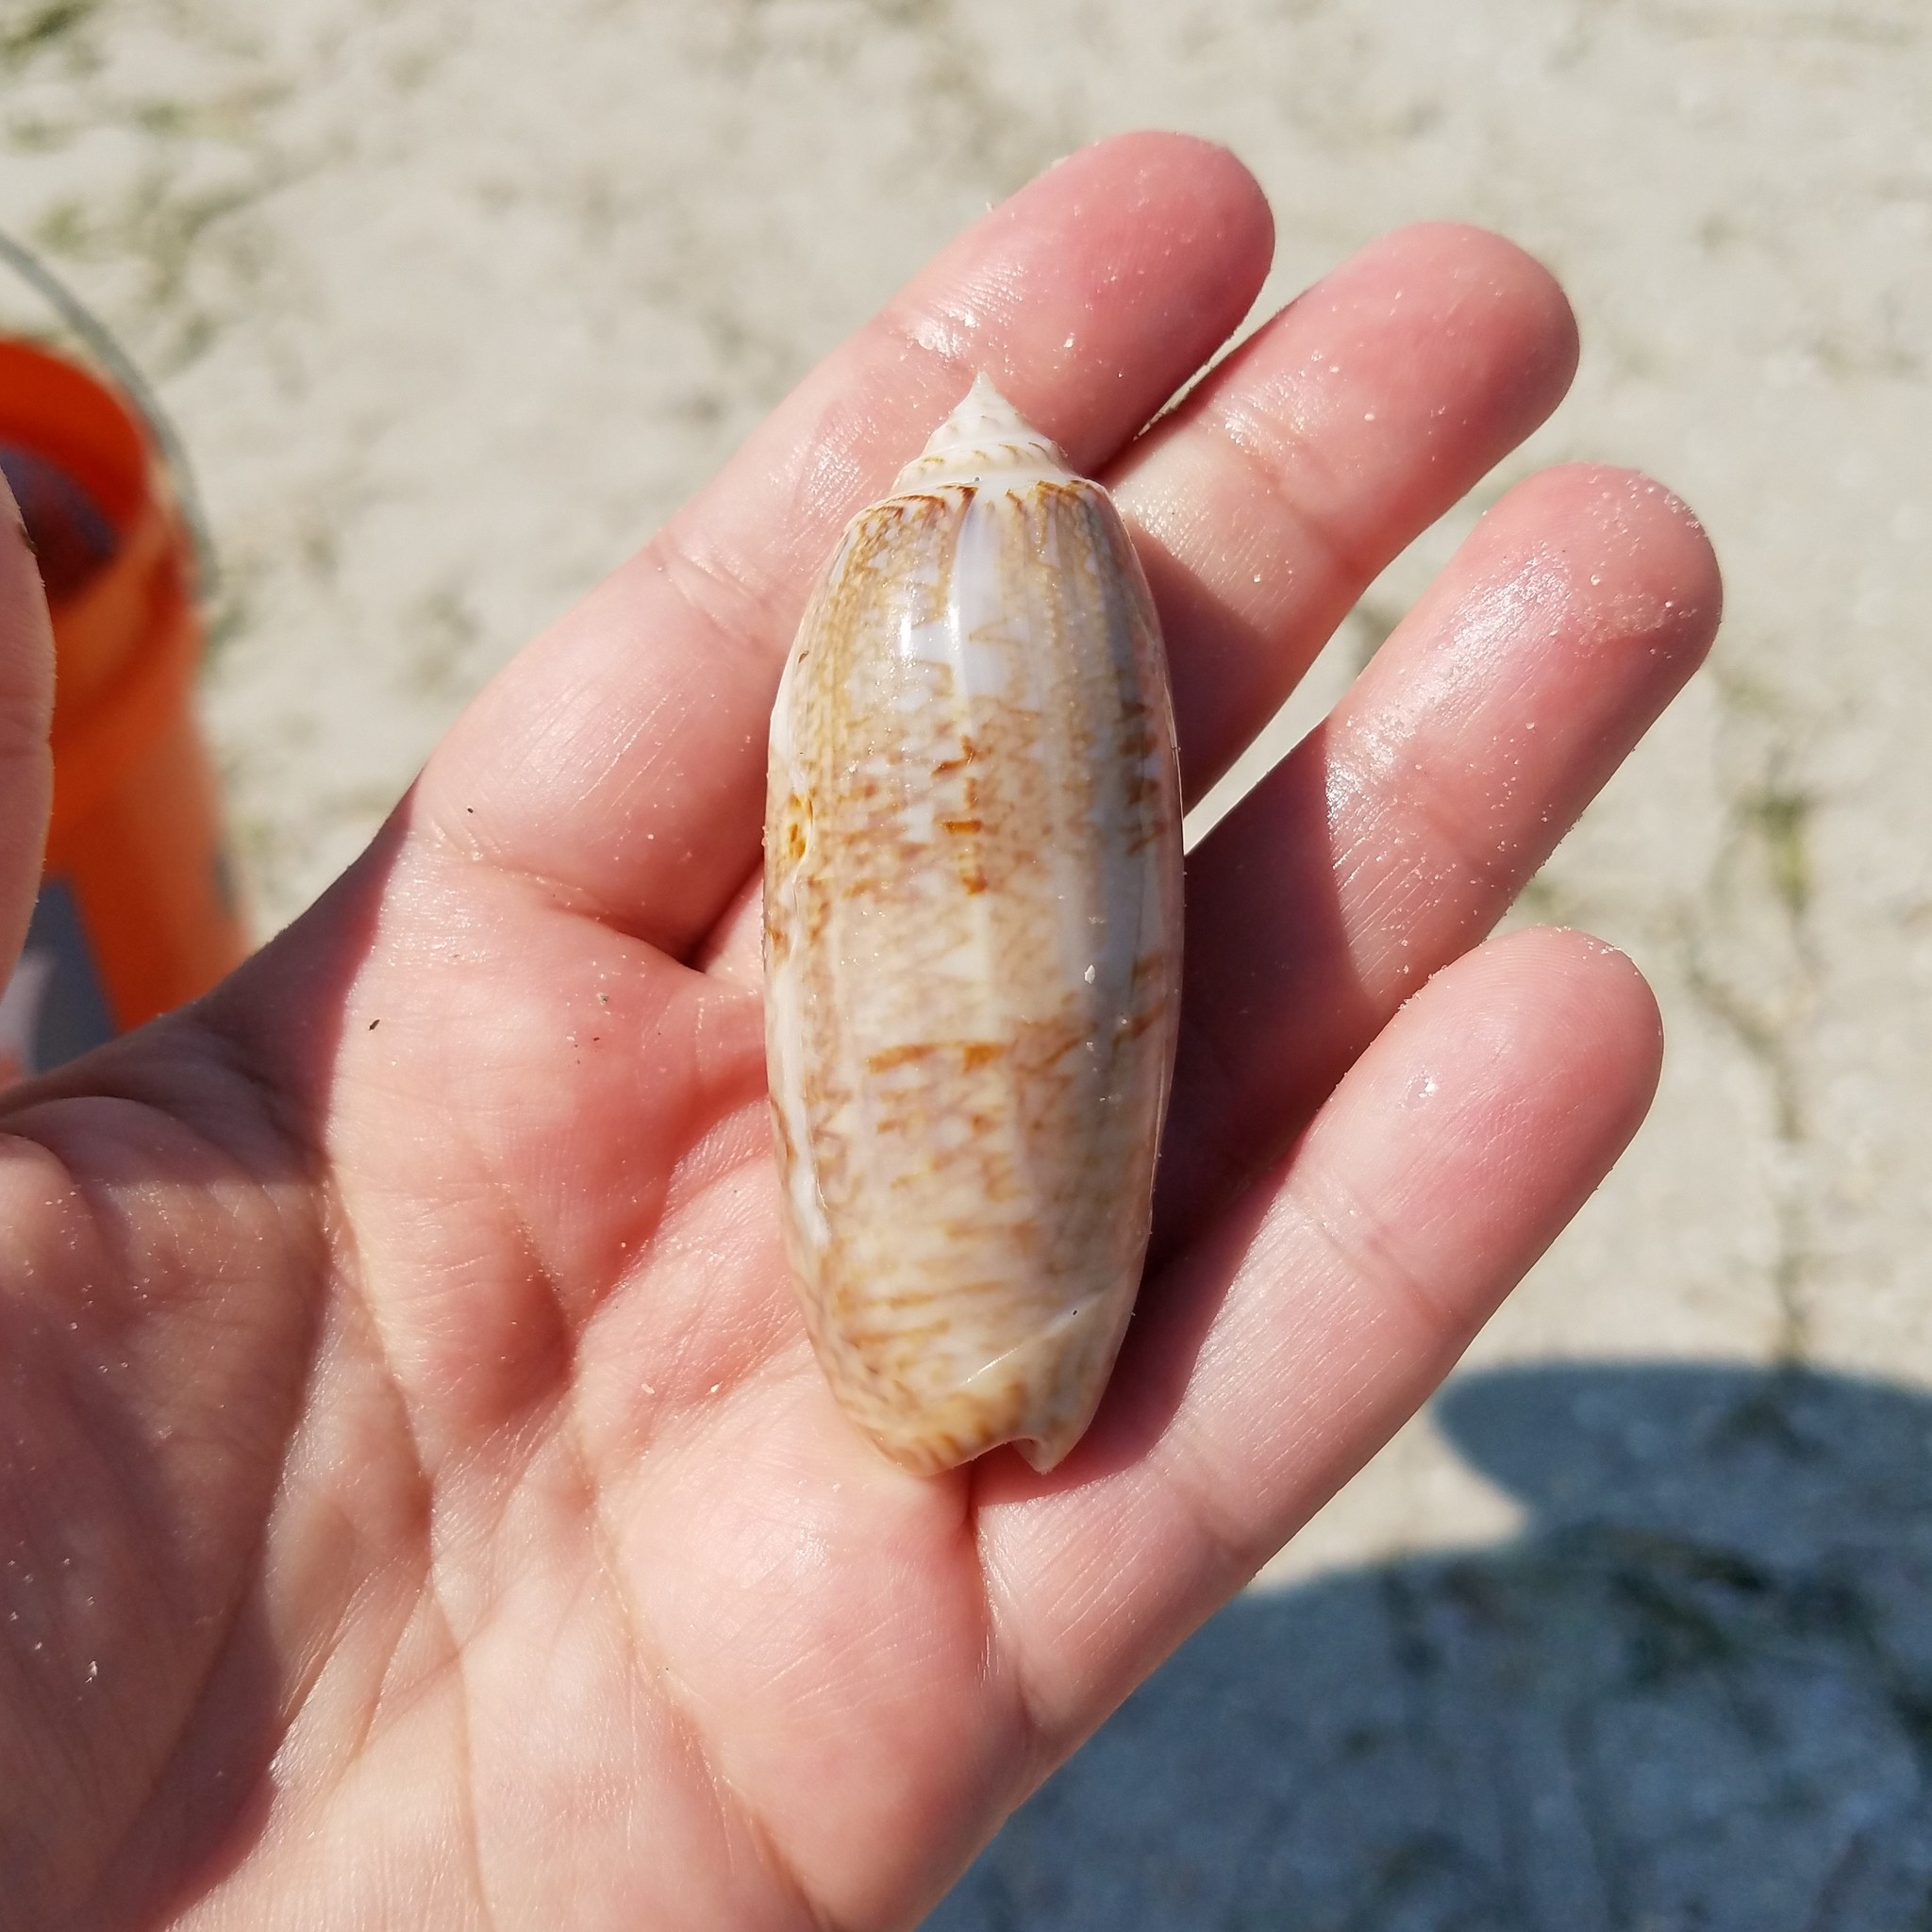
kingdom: Animalia
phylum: Mollusca
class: Gastropoda
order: Neogastropoda
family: Olividae
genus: Oliva
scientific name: Oliva sayana
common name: Lettered olive
